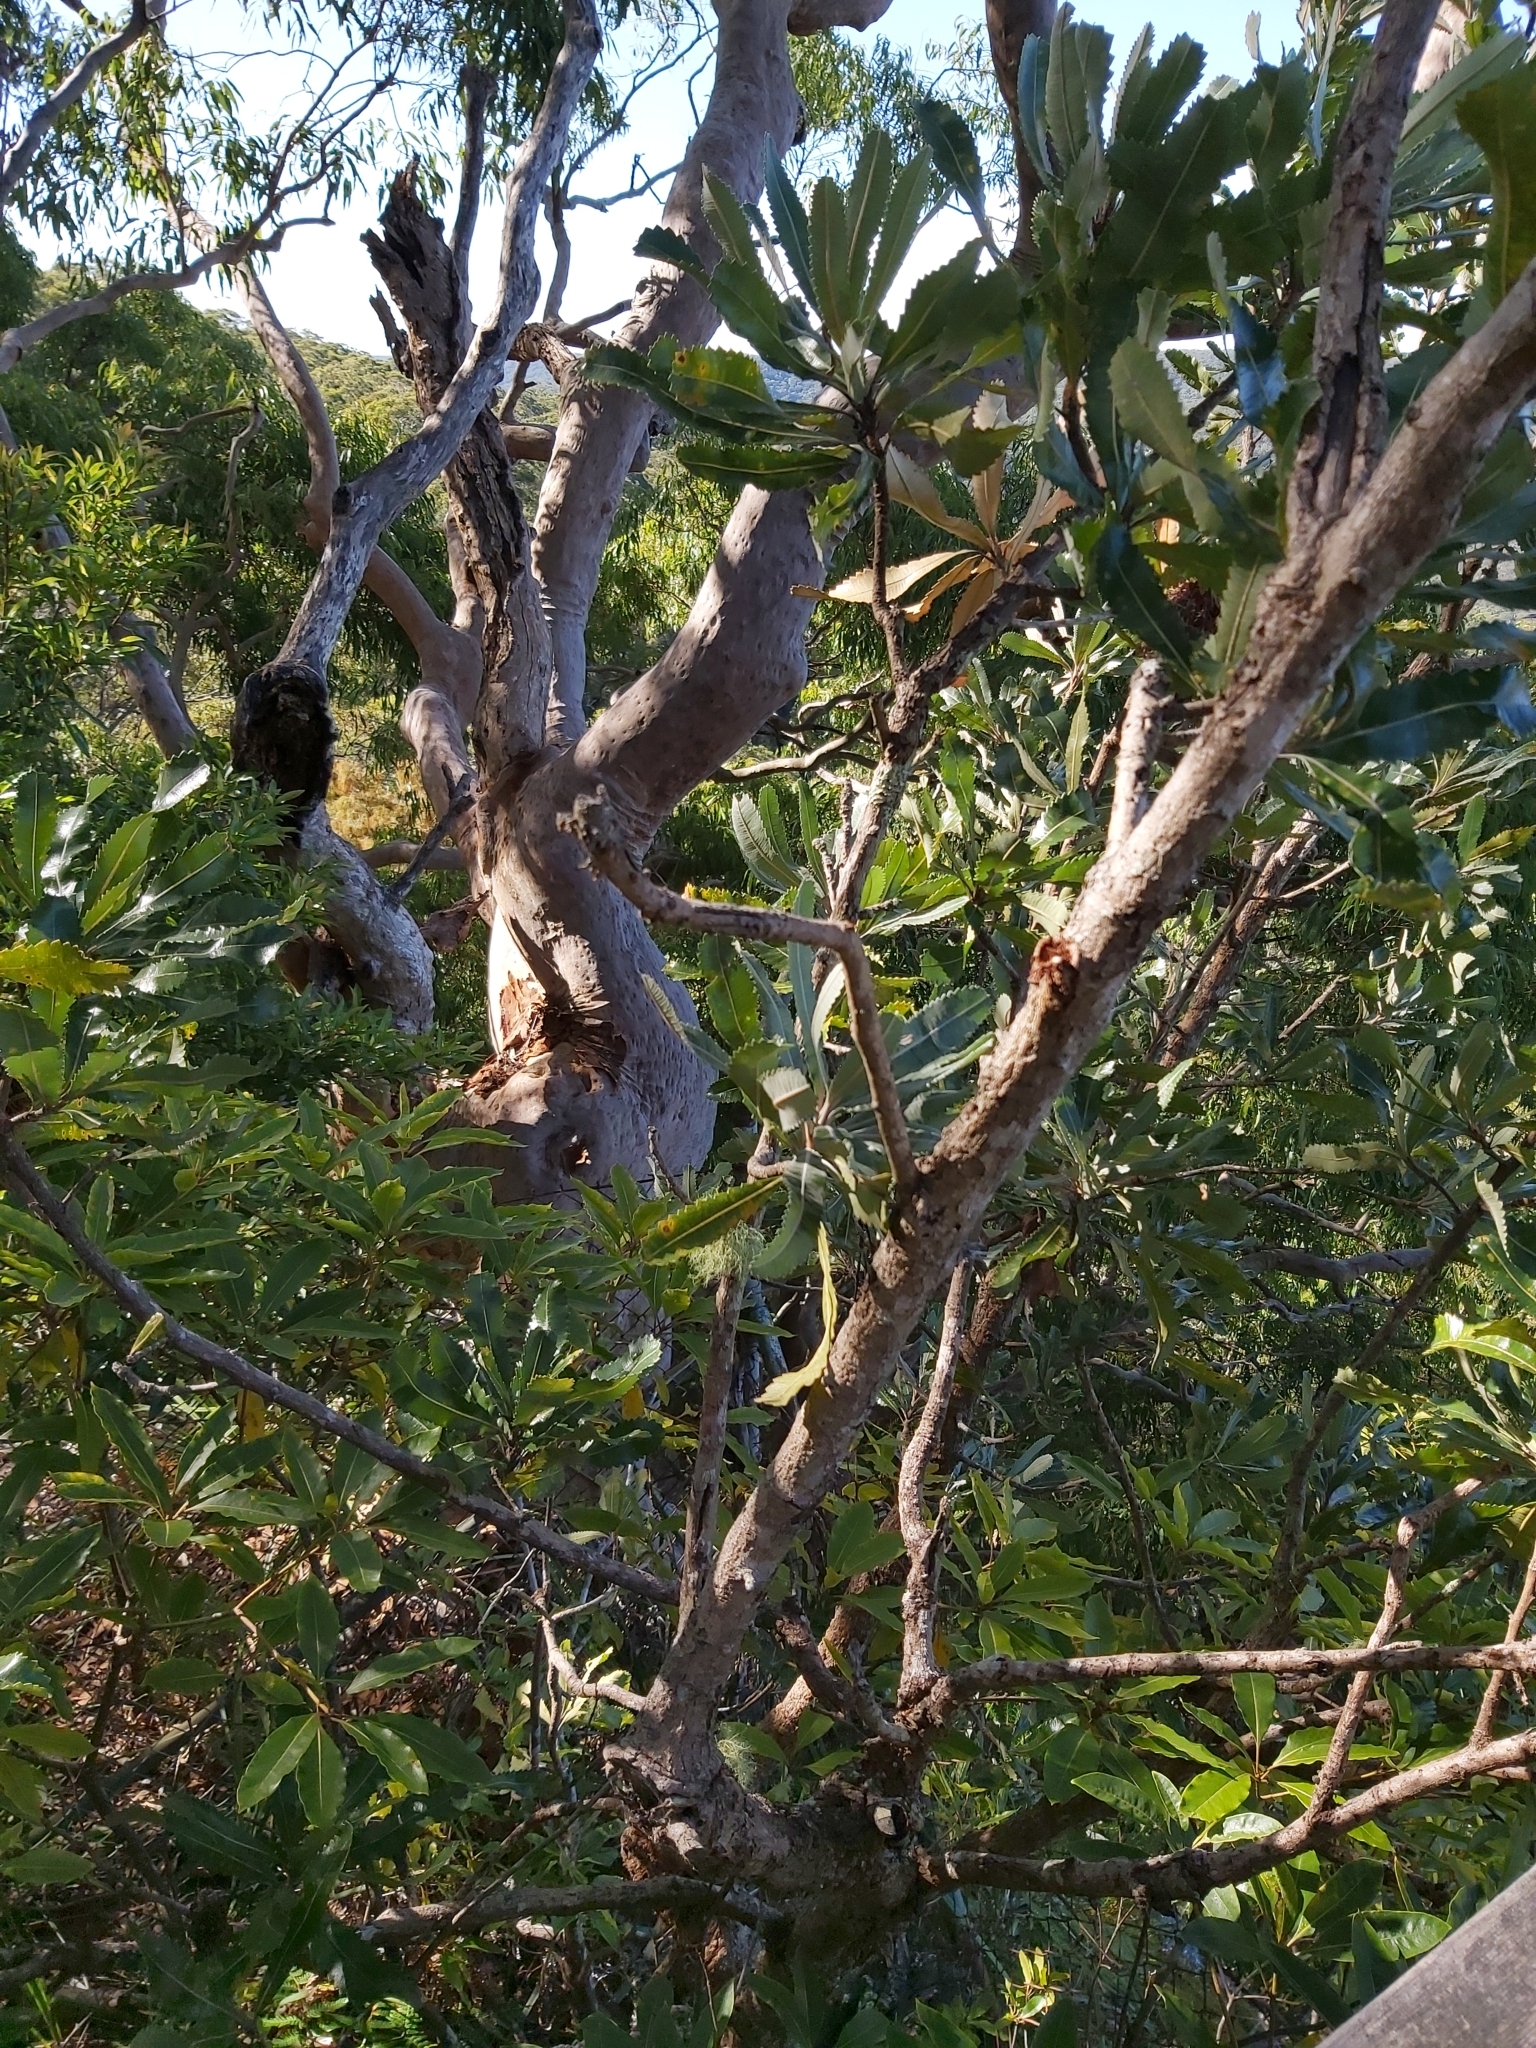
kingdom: Plantae
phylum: Tracheophyta
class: Magnoliopsida
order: Proteales
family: Proteaceae
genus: Banksia
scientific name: Banksia serrata
